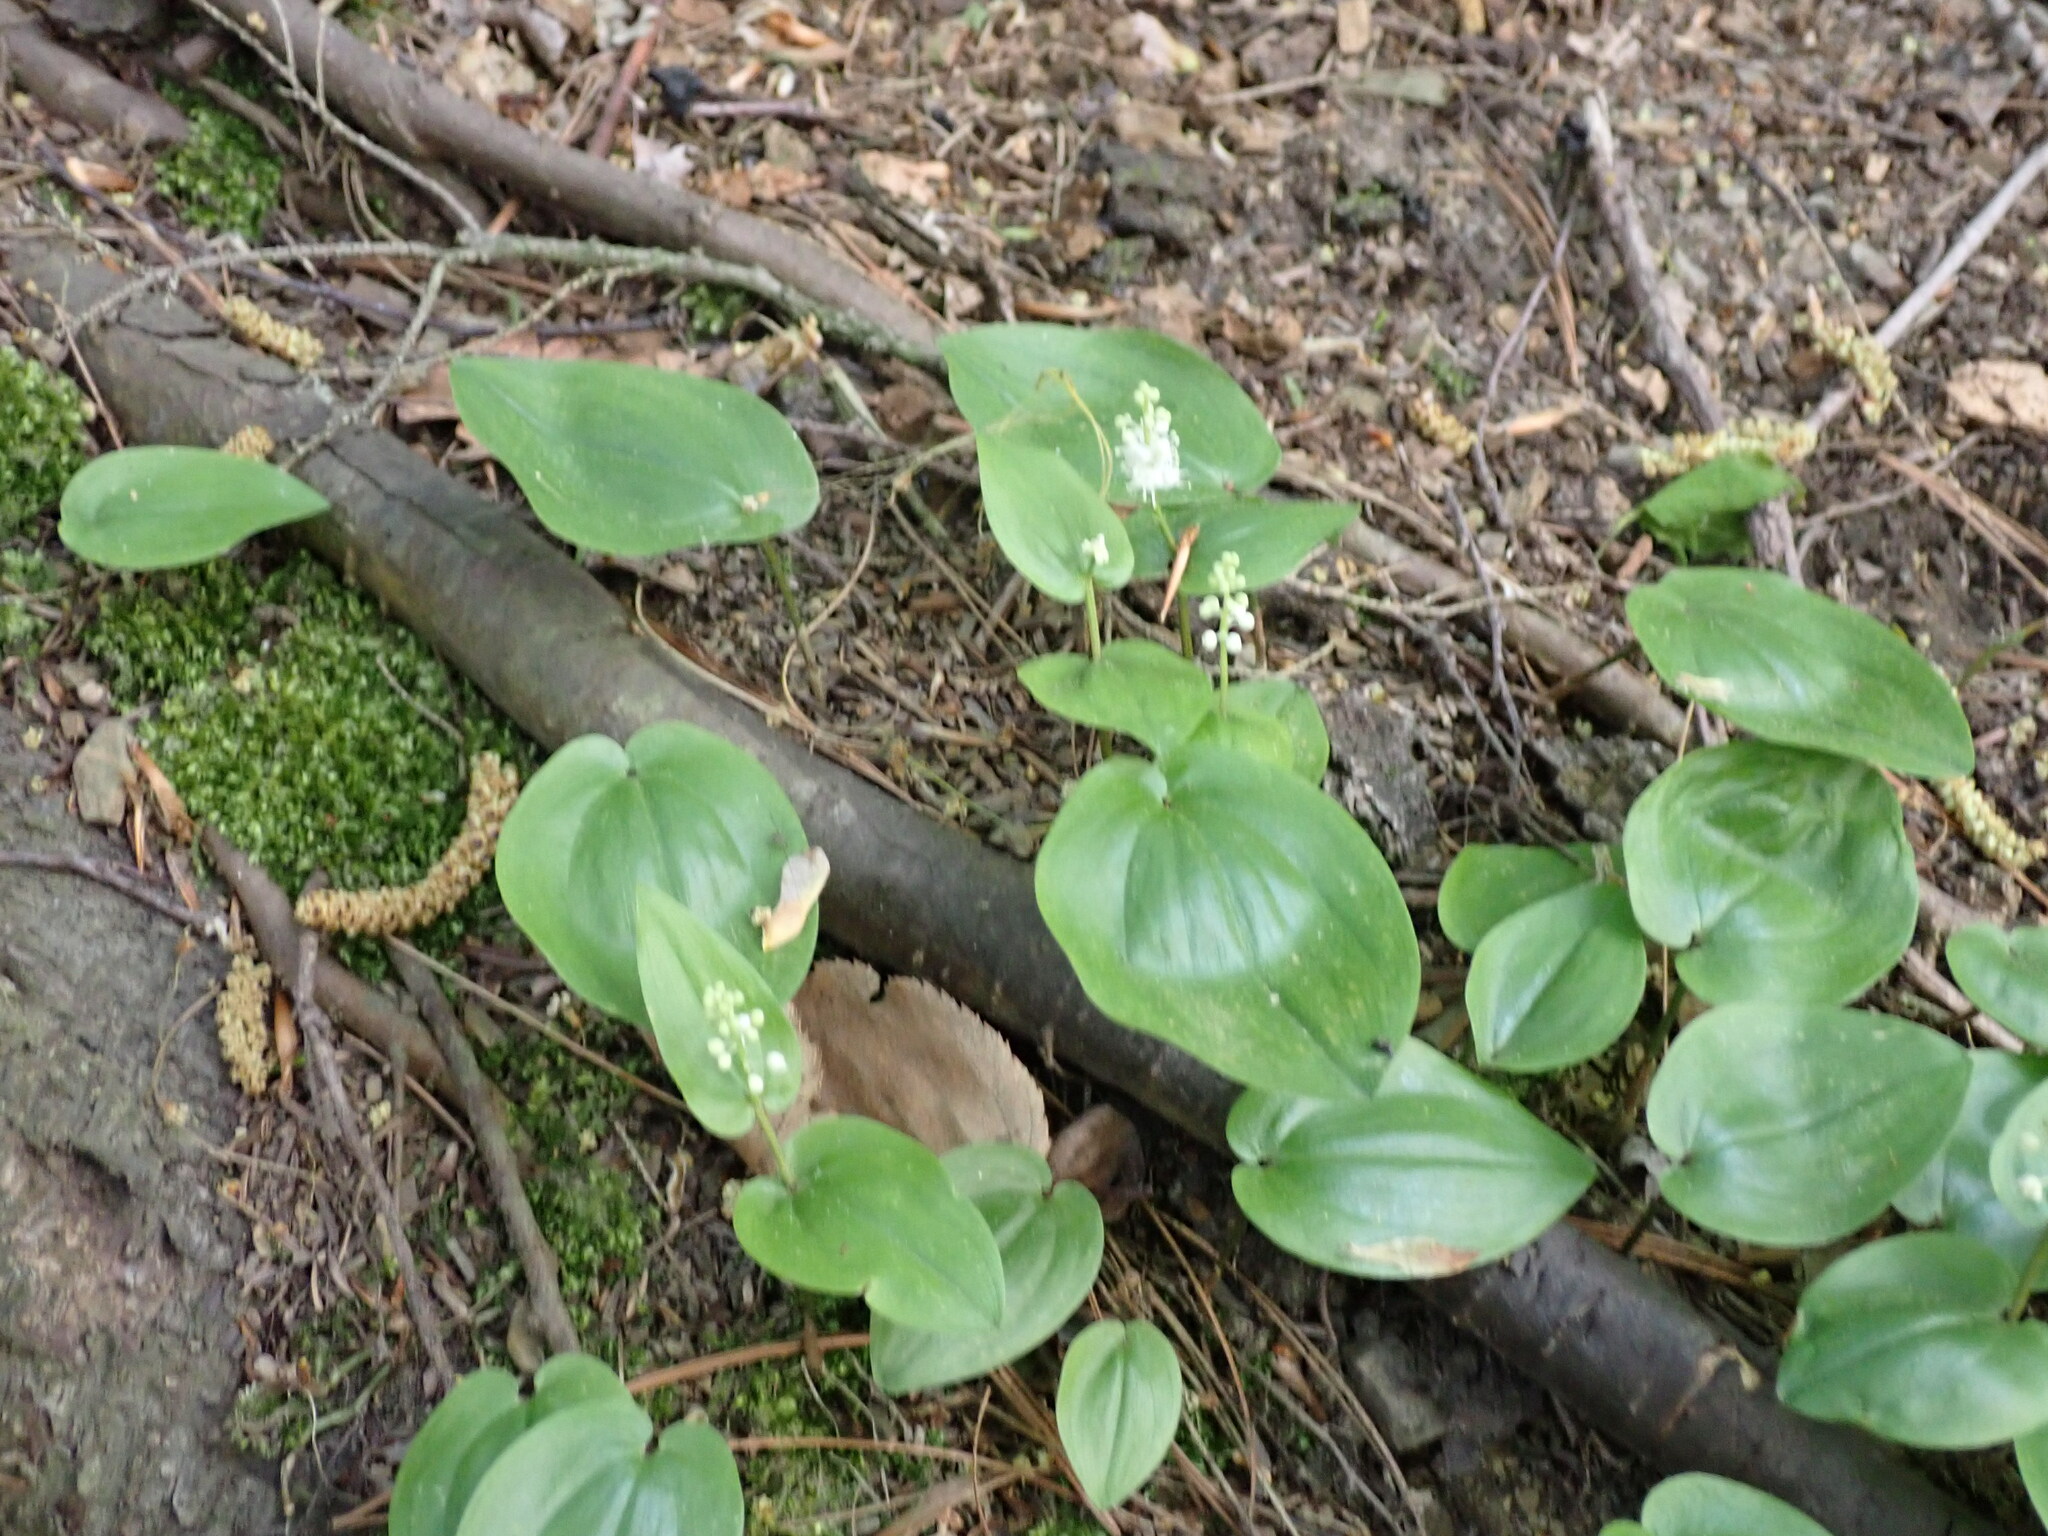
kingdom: Plantae
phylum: Tracheophyta
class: Liliopsida
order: Asparagales
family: Asparagaceae
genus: Maianthemum
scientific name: Maianthemum canadense
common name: False lily-of-the-valley
